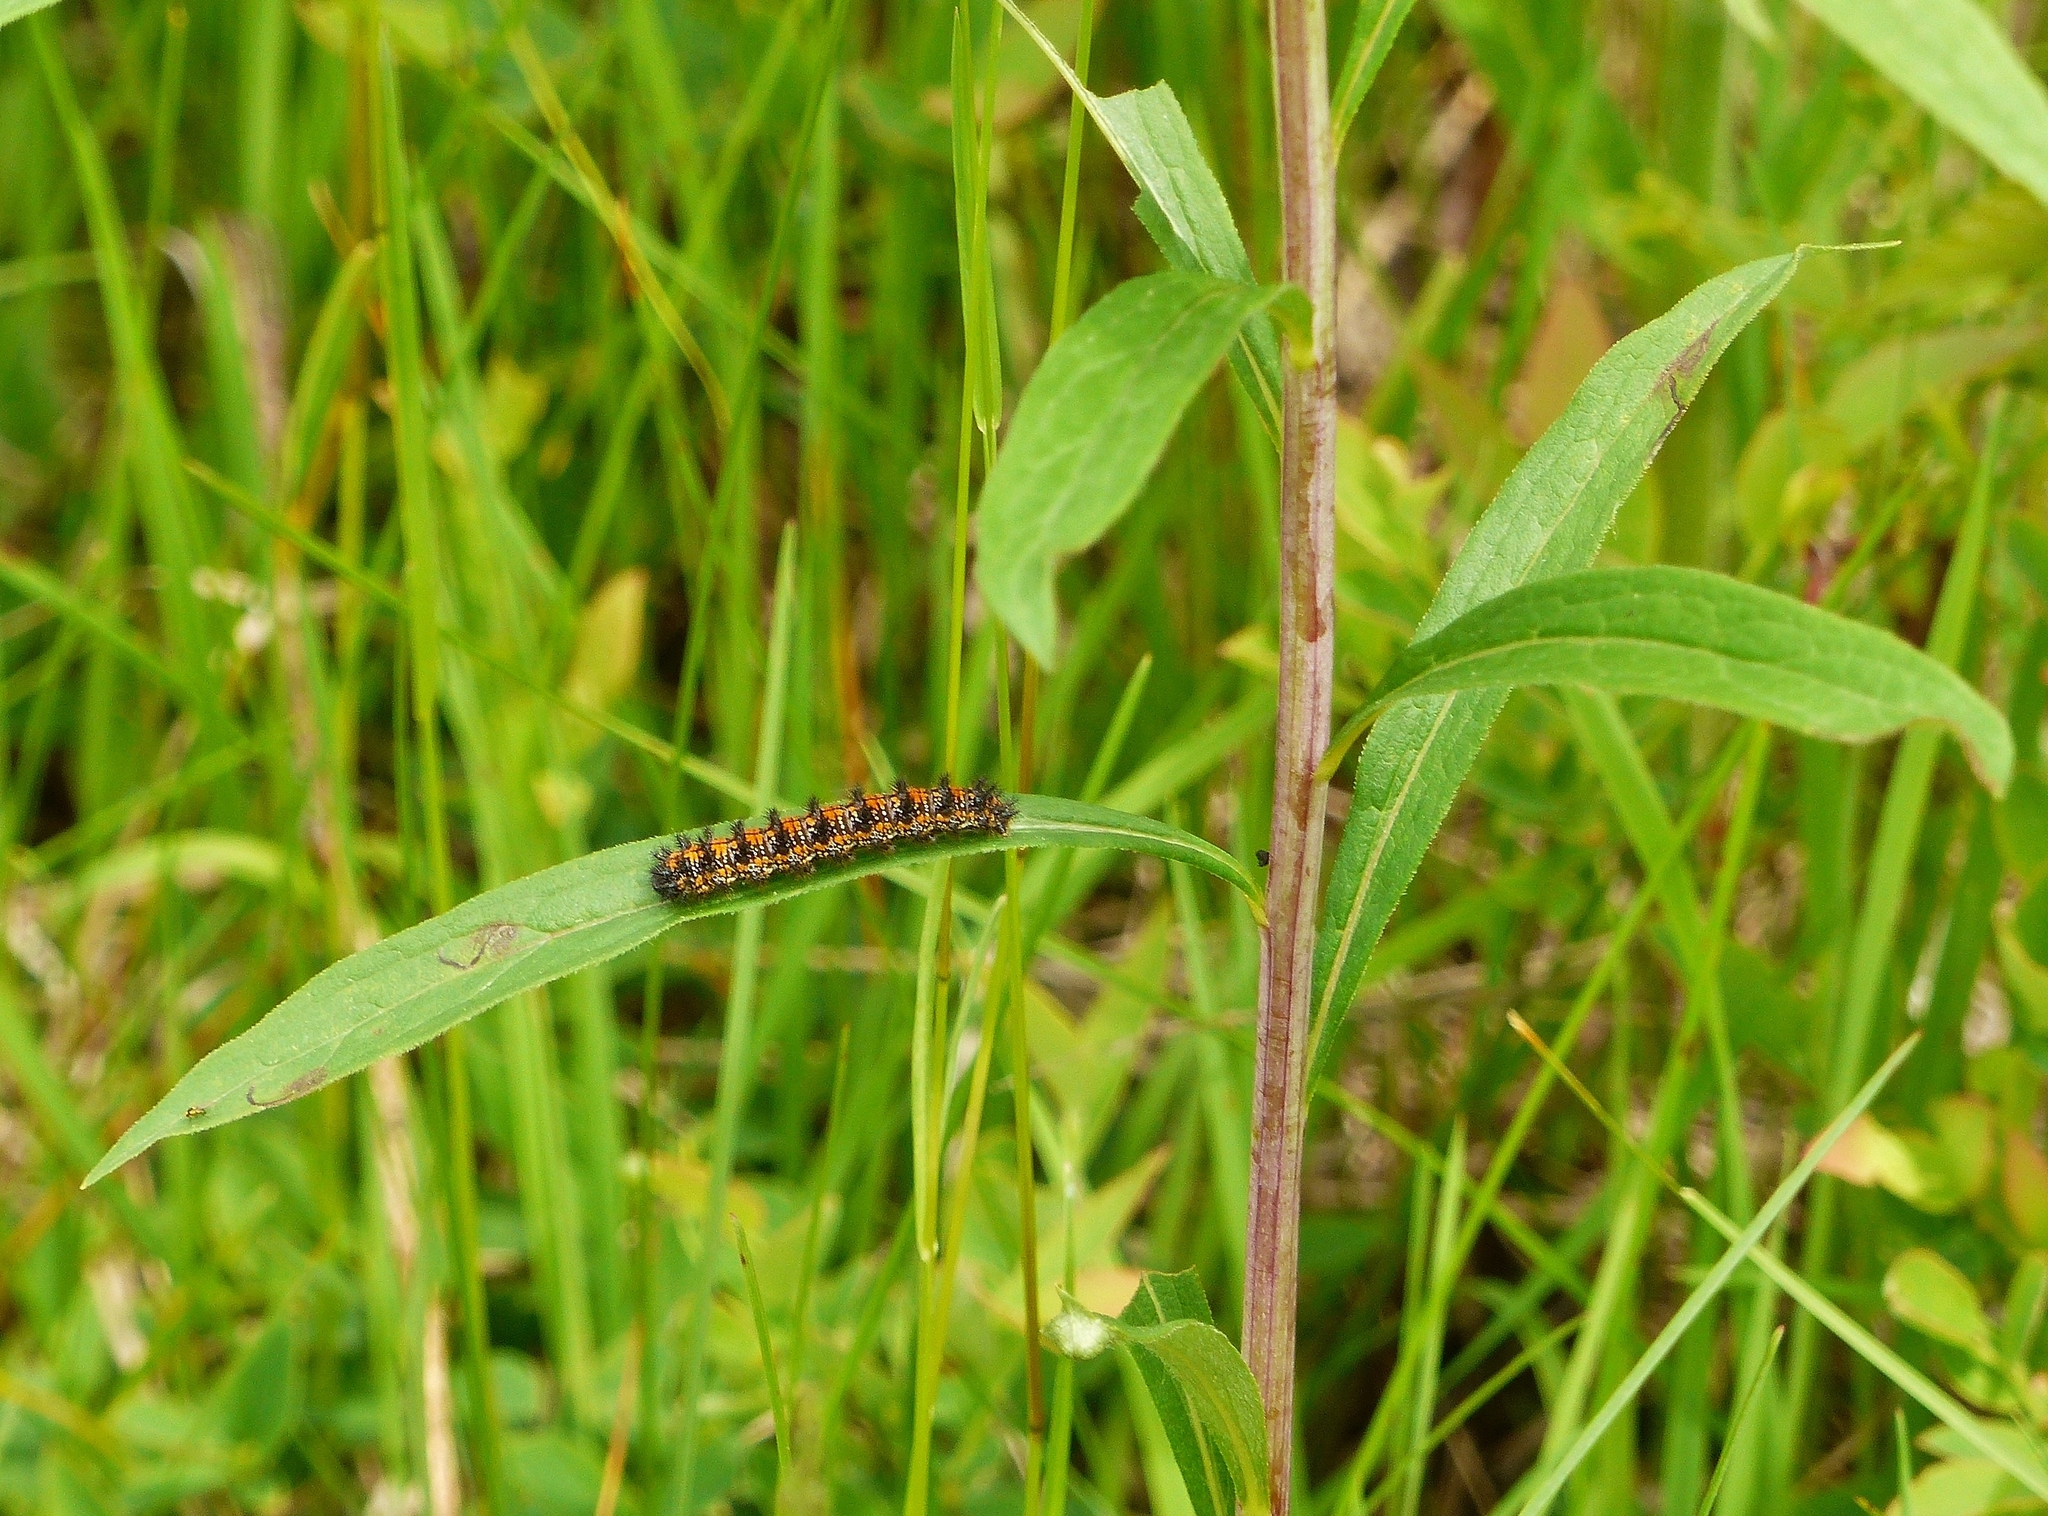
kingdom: Animalia
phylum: Arthropoda
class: Insecta
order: Lepidoptera
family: Nymphalidae
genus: Chlosyne
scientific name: Chlosyne harrisii
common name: Harris's checkerspot
